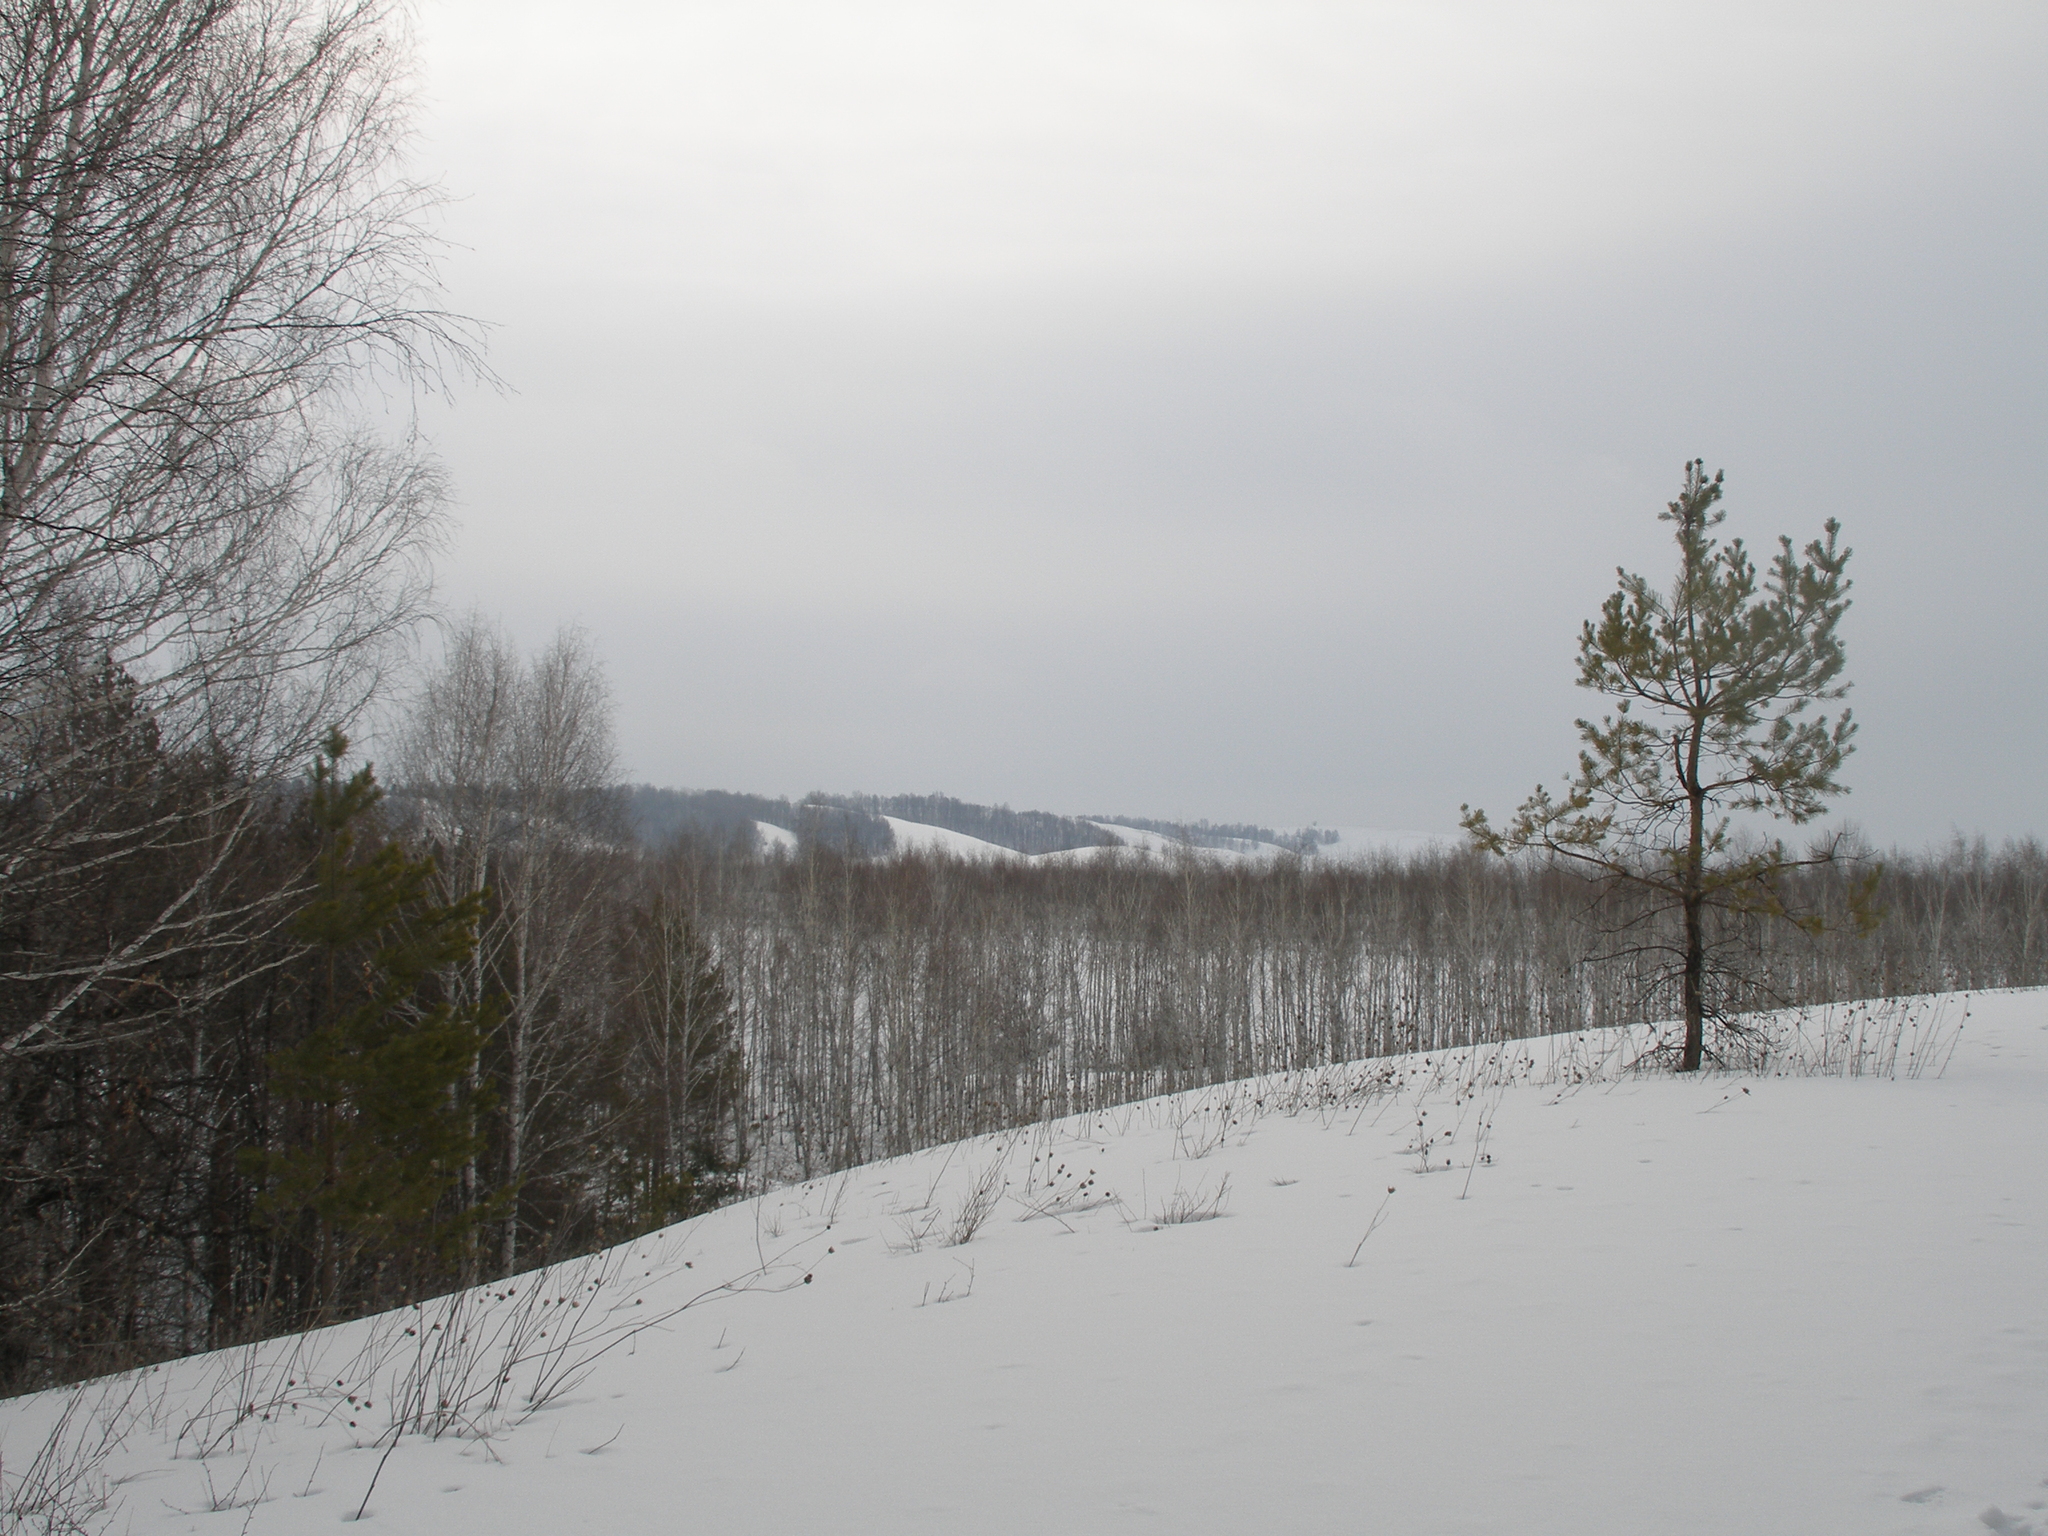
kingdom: Plantae
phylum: Tracheophyta
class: Pinopsida
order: Pinales
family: Pinaceae
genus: Pinus
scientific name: Pinus sylvestris
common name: Scots pine
